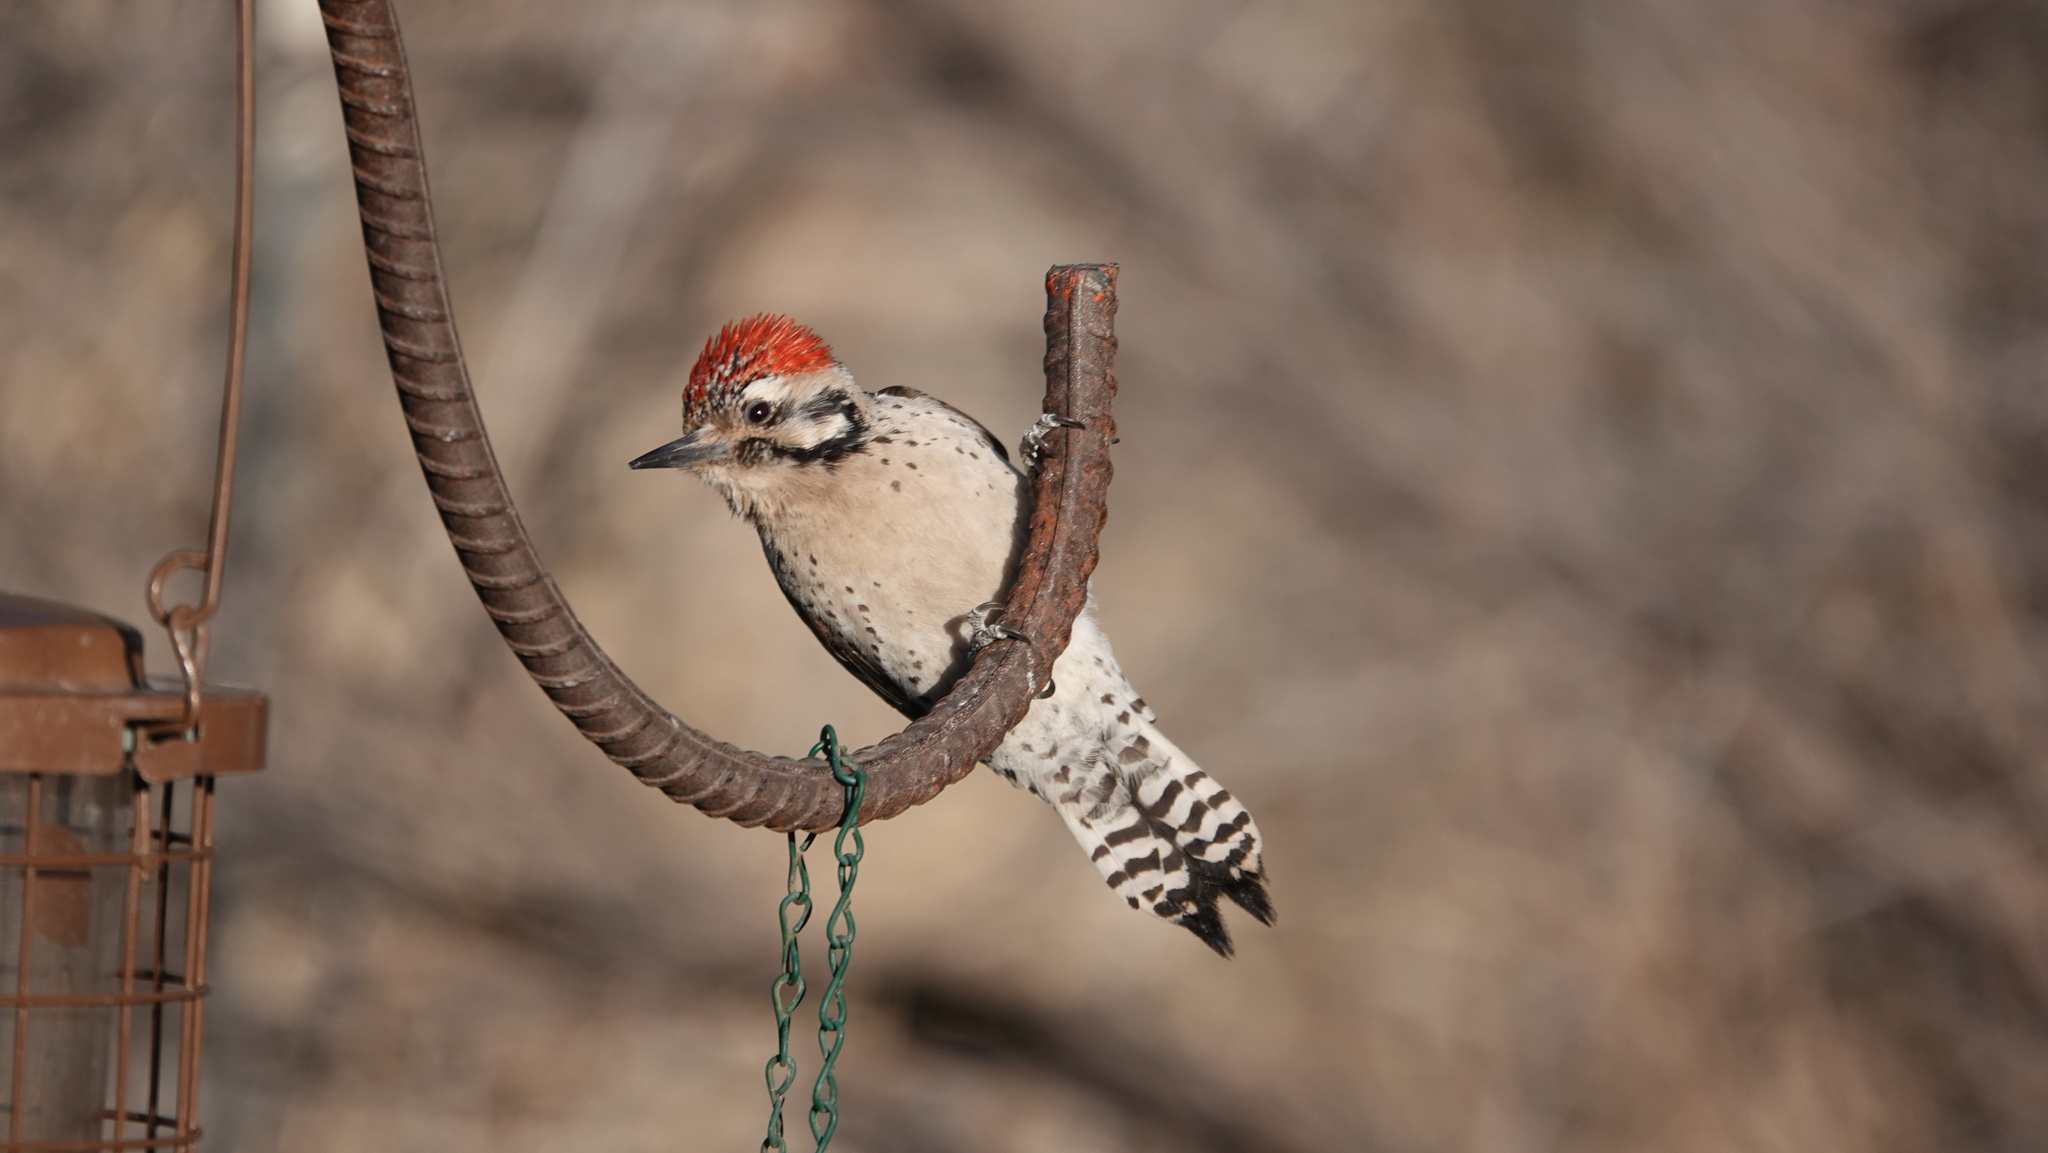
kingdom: Animalia
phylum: Chordata
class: Aves
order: Piciformes
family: Picidae
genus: Dryobates
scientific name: Dryobates scalaris
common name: Ladder-backed woodpecker
